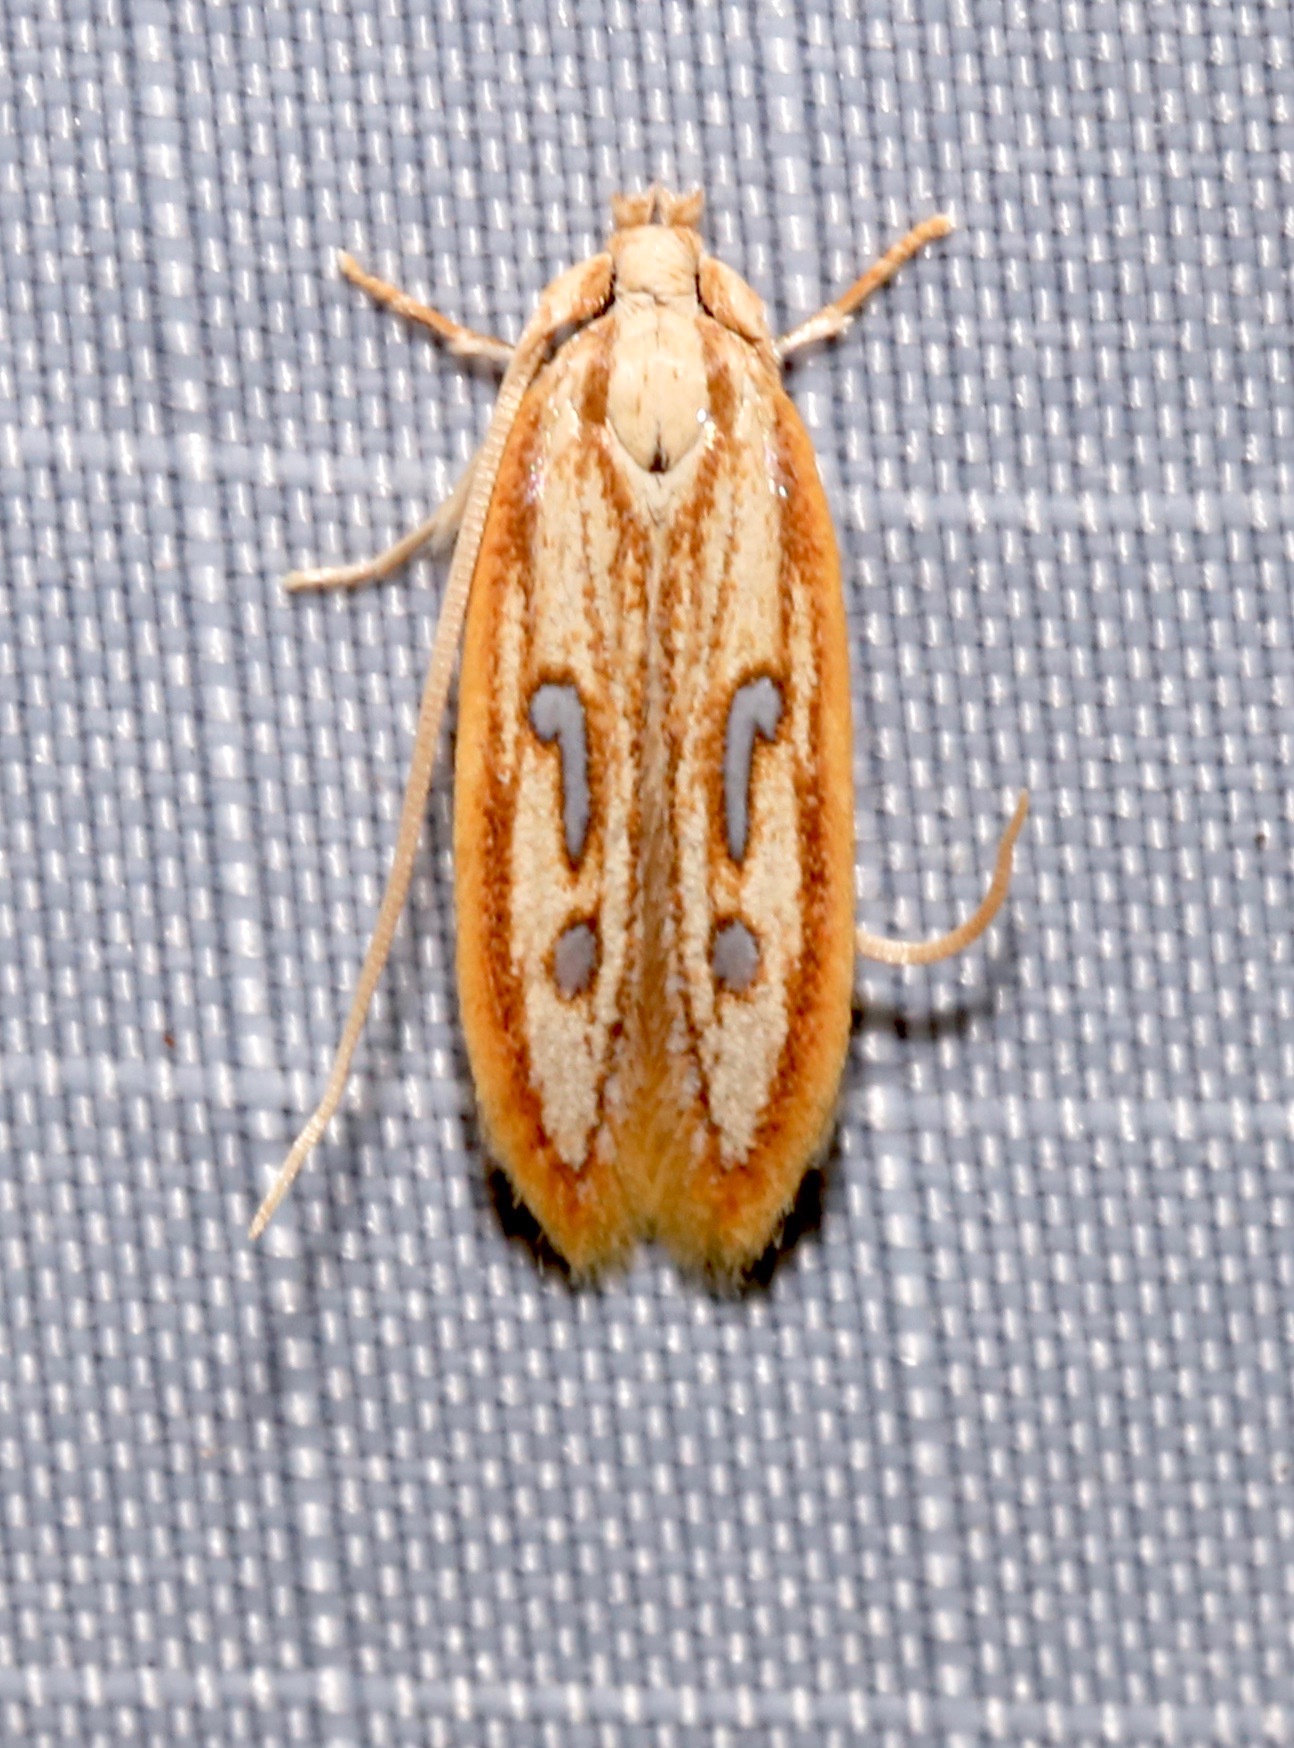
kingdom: Animalia
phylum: Arthropoda
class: Insecta
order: Lepidoptera
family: Coleophoridae
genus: Homaledra
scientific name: Homaledra heptathalama
